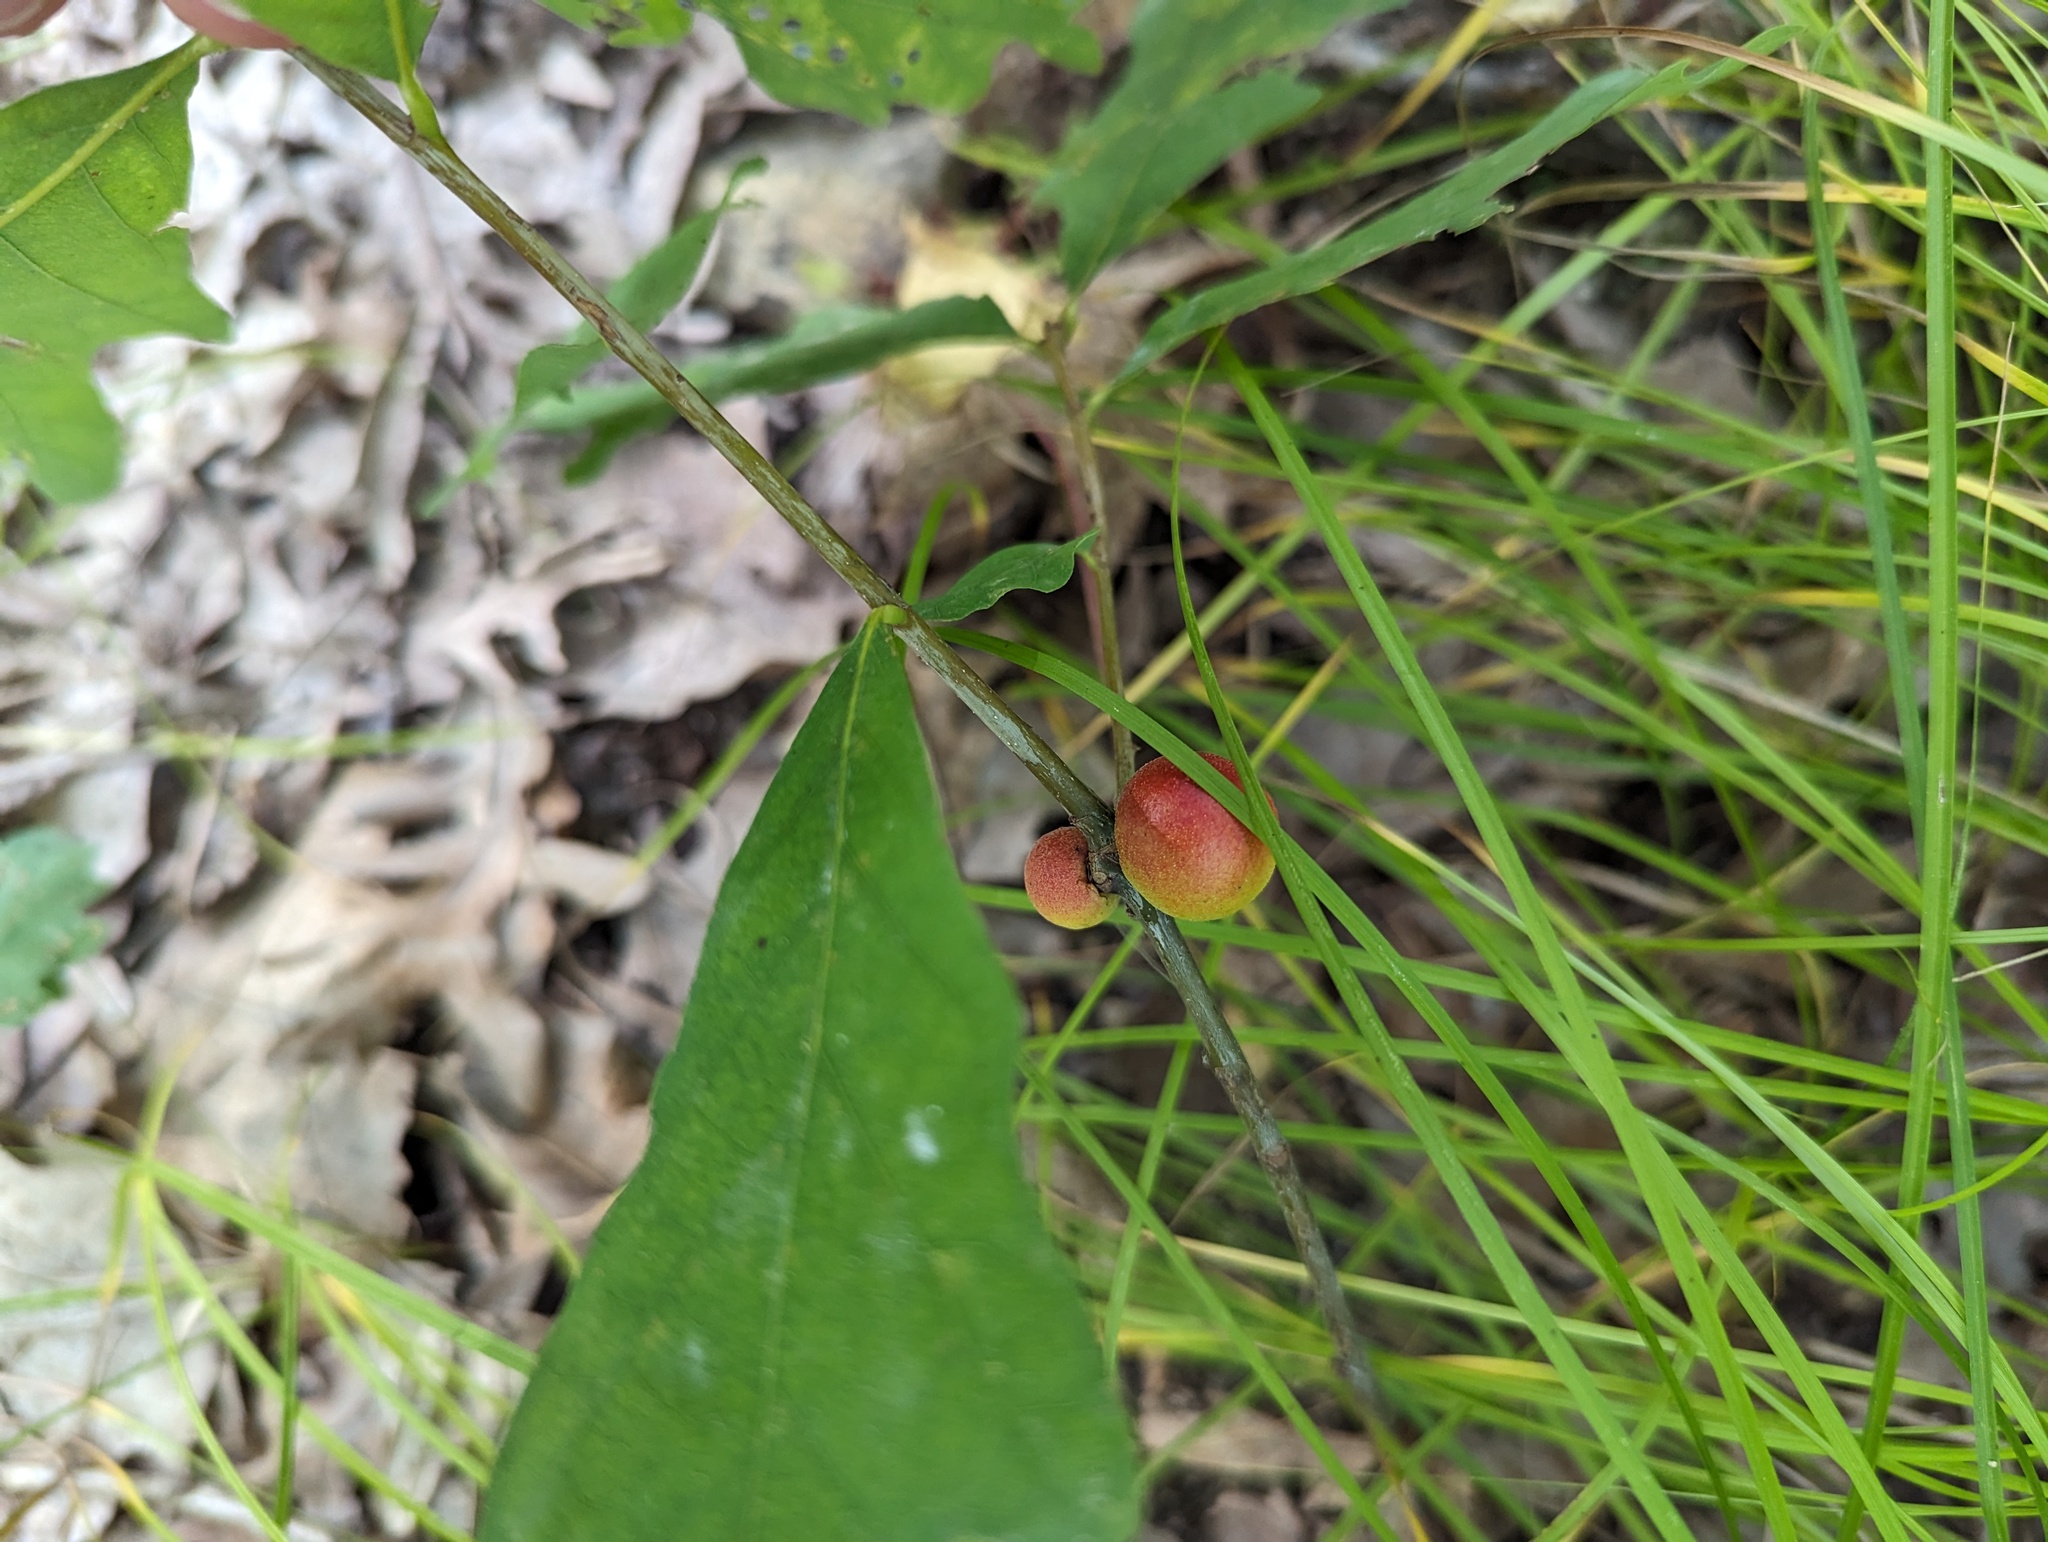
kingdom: Animalia
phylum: Arthropoda
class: Insecta
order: Hymenoptera
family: Cynipidae
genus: Disholcaspis
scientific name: Disholcaspis quercusglobulus
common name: Round bullet gall wasp
